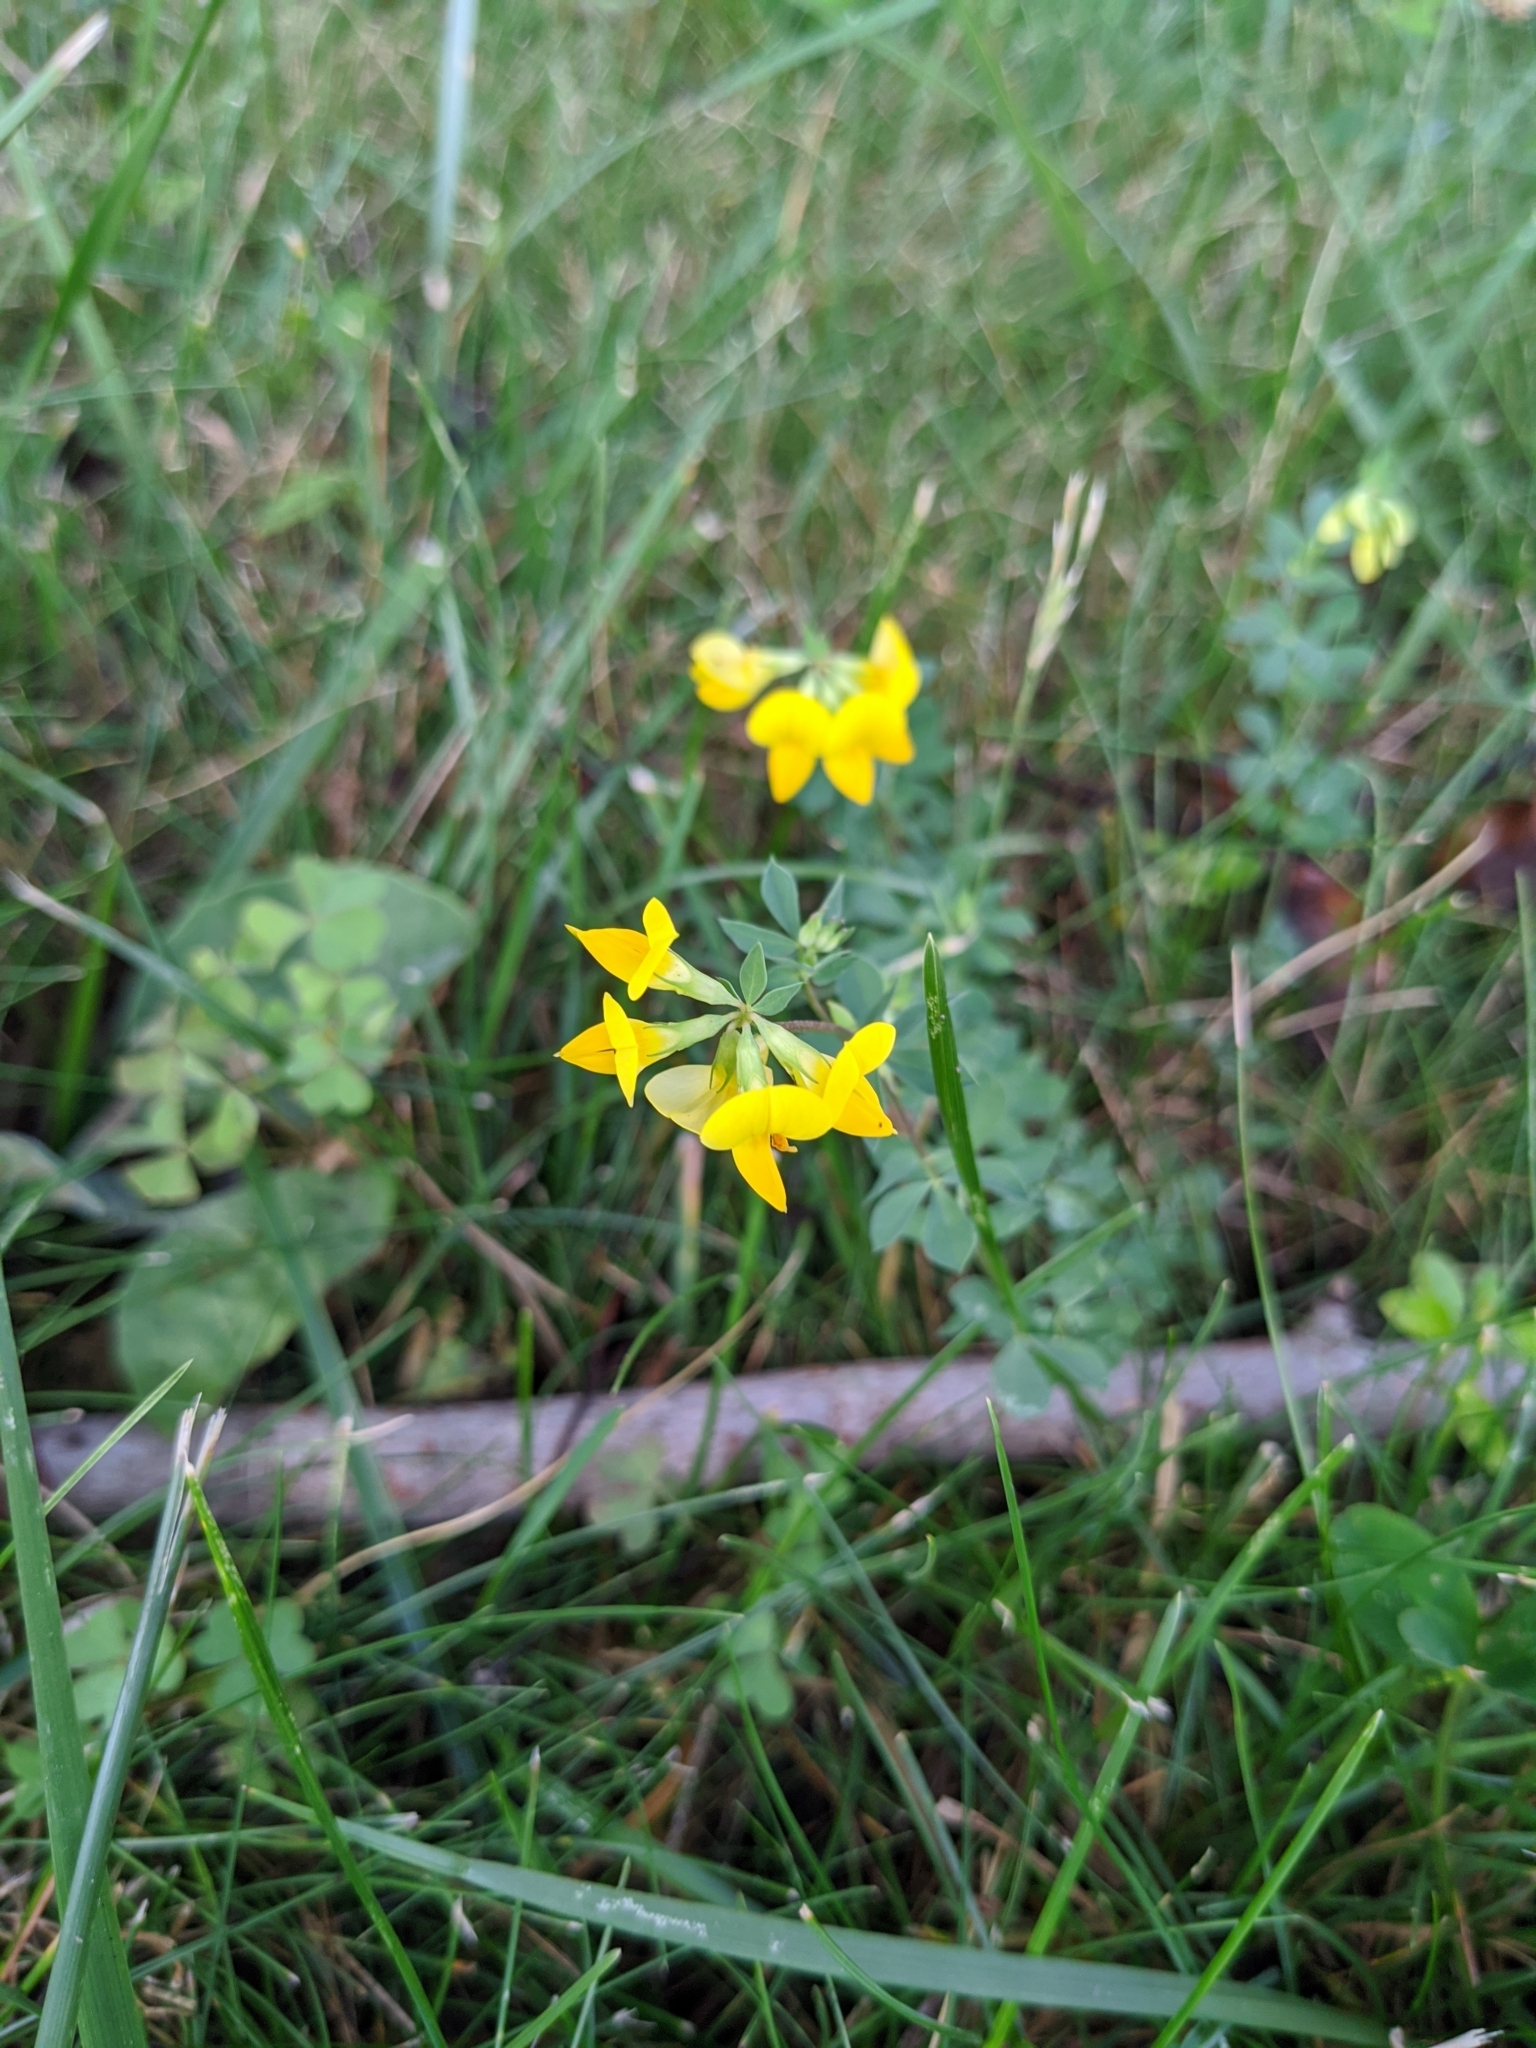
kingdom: Plantae
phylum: Tracheophyta
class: Magnoliopsida
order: Fabales
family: Fabaceae
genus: Lotus
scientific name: Lotus corniculatus
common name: Common bird's-foot-trefoil
